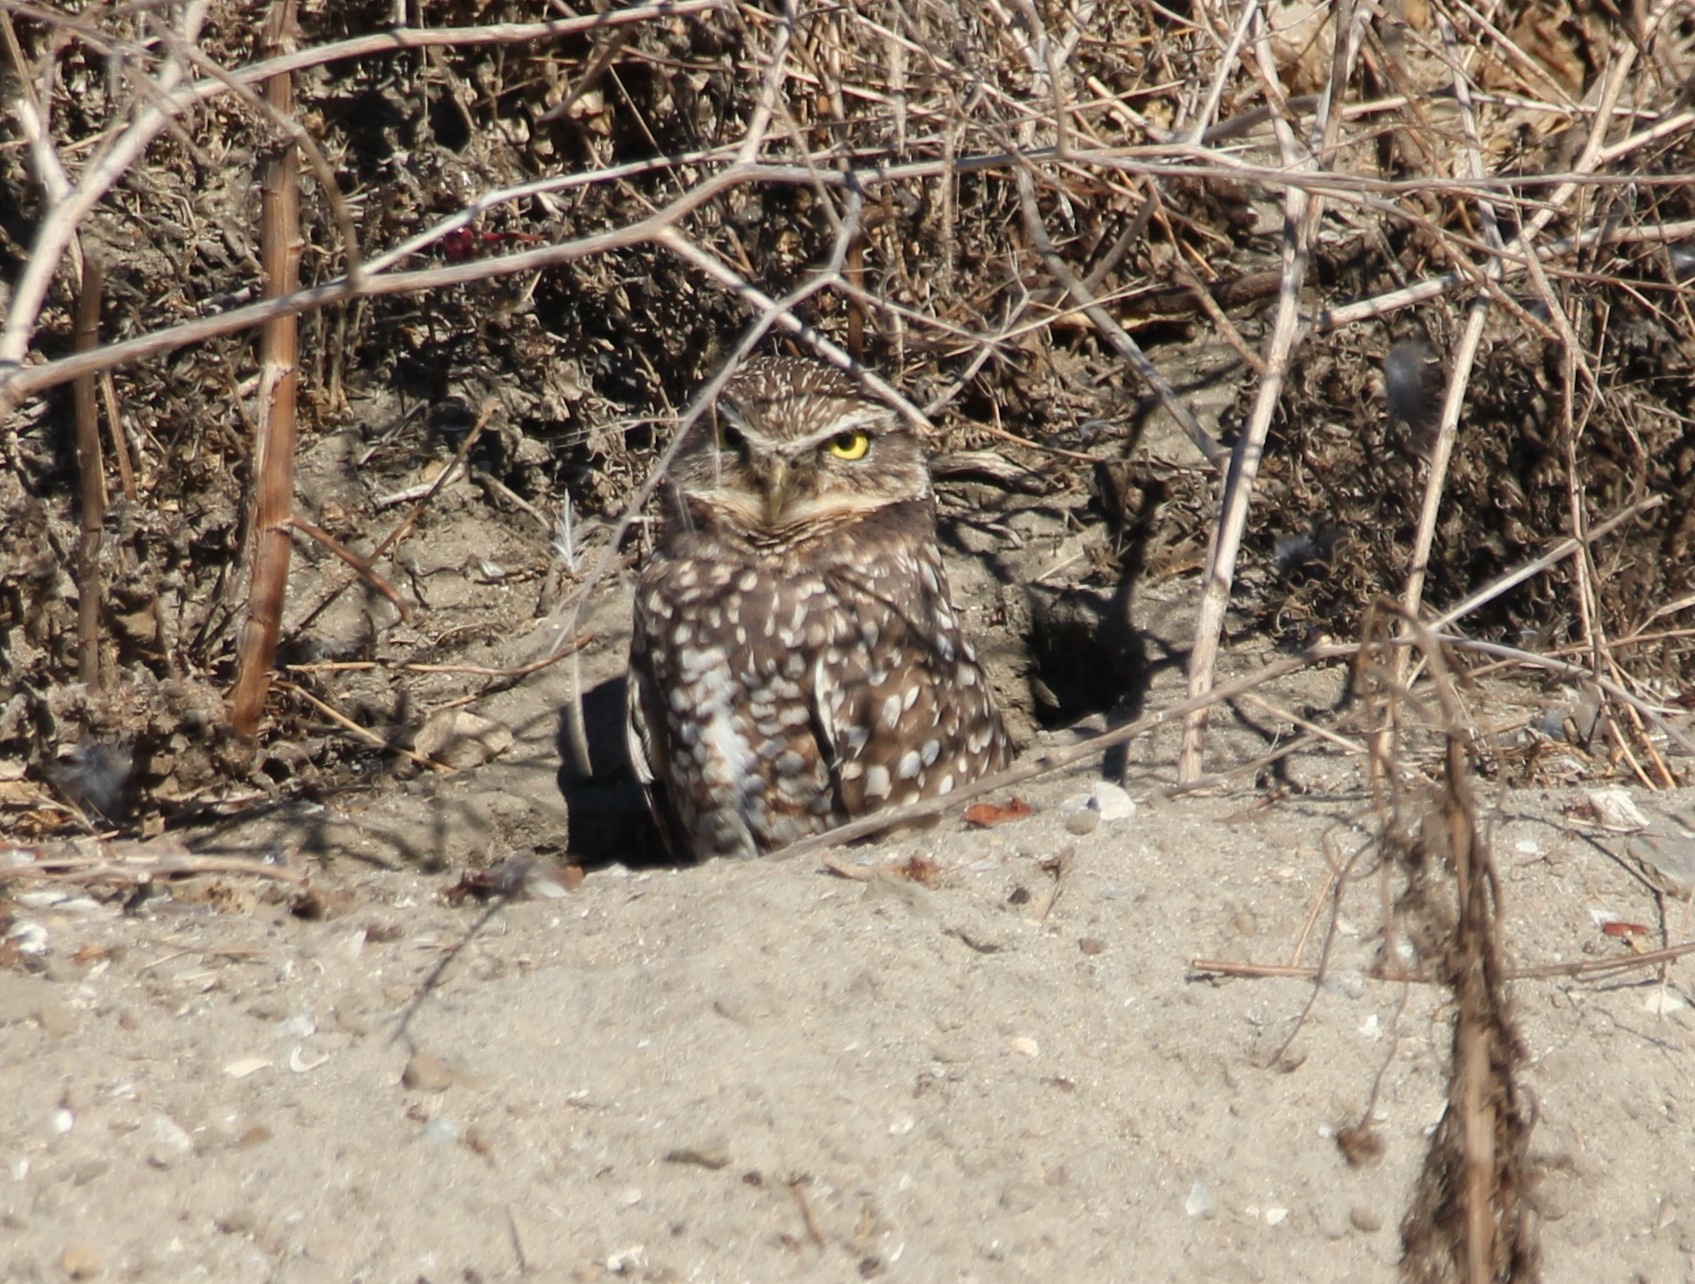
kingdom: Animalia
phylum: Chordata
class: Aves
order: Strigiformes
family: Strigidae
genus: Athene
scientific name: Athene cunicularia
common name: Burrowing owl
